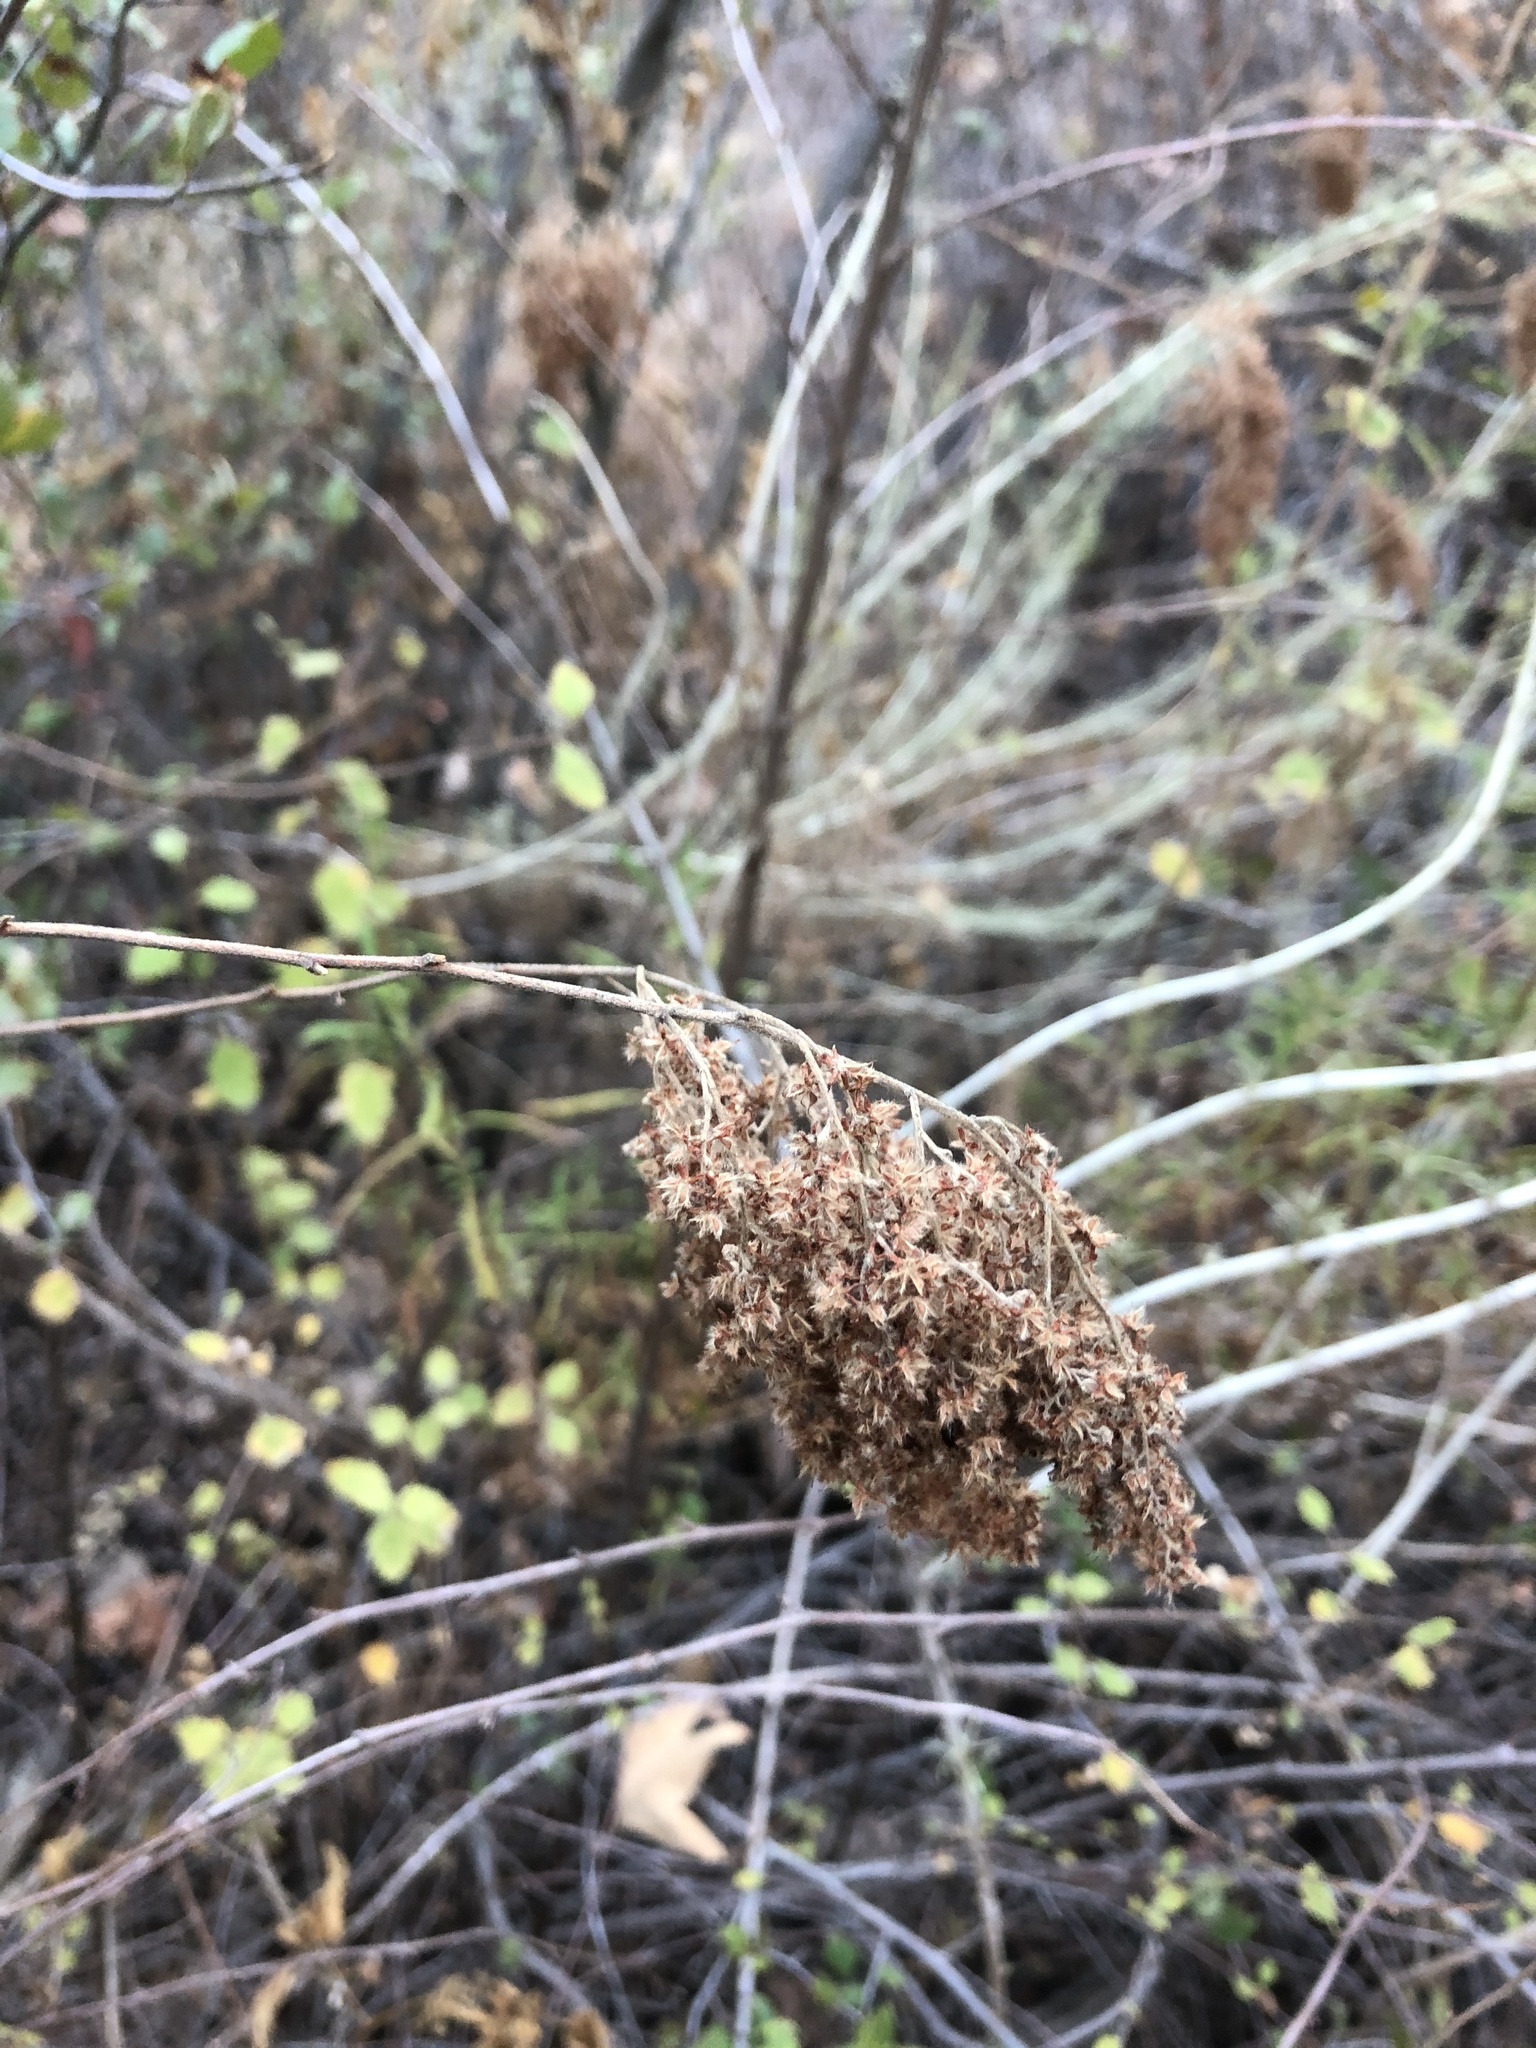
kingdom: Plantae
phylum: Tracheophyta
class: Magnoliopsida
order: Rosales
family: Rosaceae
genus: Holodiscus
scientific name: Holodiscus discolor
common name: Oceanspray
